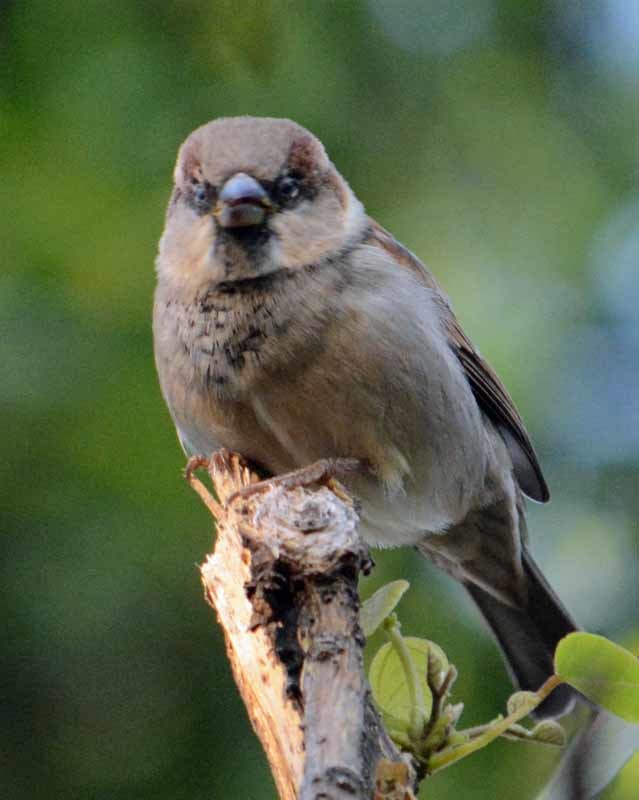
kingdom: Animalia
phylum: Chordata
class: Aves
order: Passeriformes
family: Passeridae
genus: Passer
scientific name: Passer domesticus
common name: House sparrow
